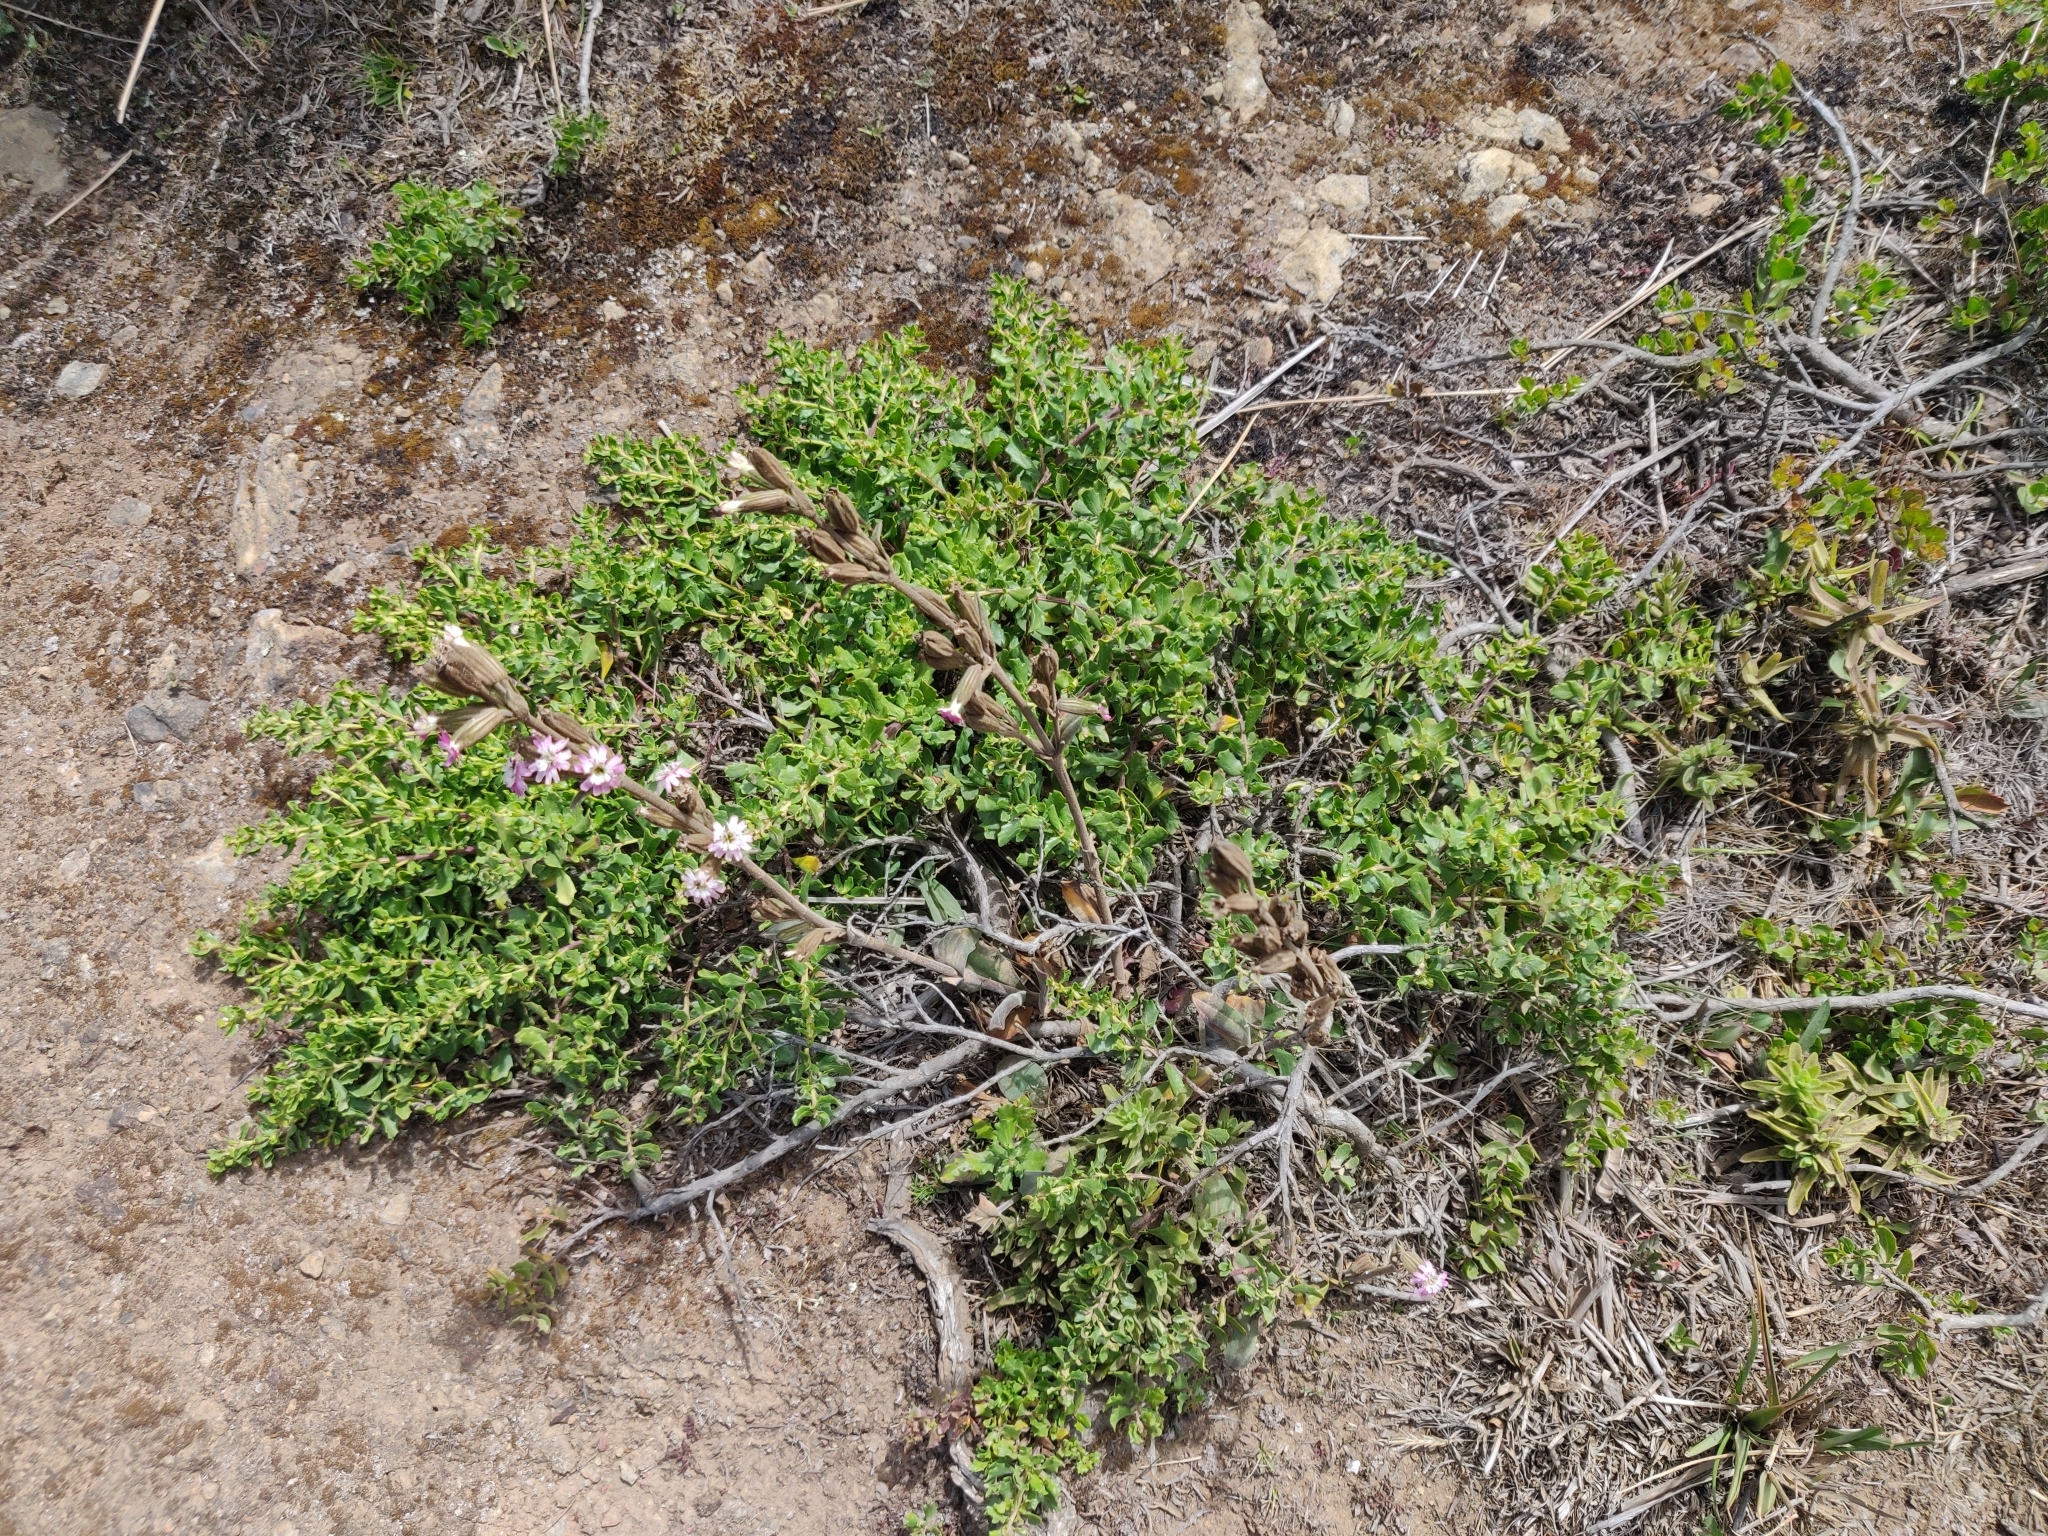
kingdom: Plantae
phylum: Tracheophyta
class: Magnoliopsida
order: Caryophyllales
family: Caryophyllaceae
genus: Silene
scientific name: Silene scouleri
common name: Scouler's campion
